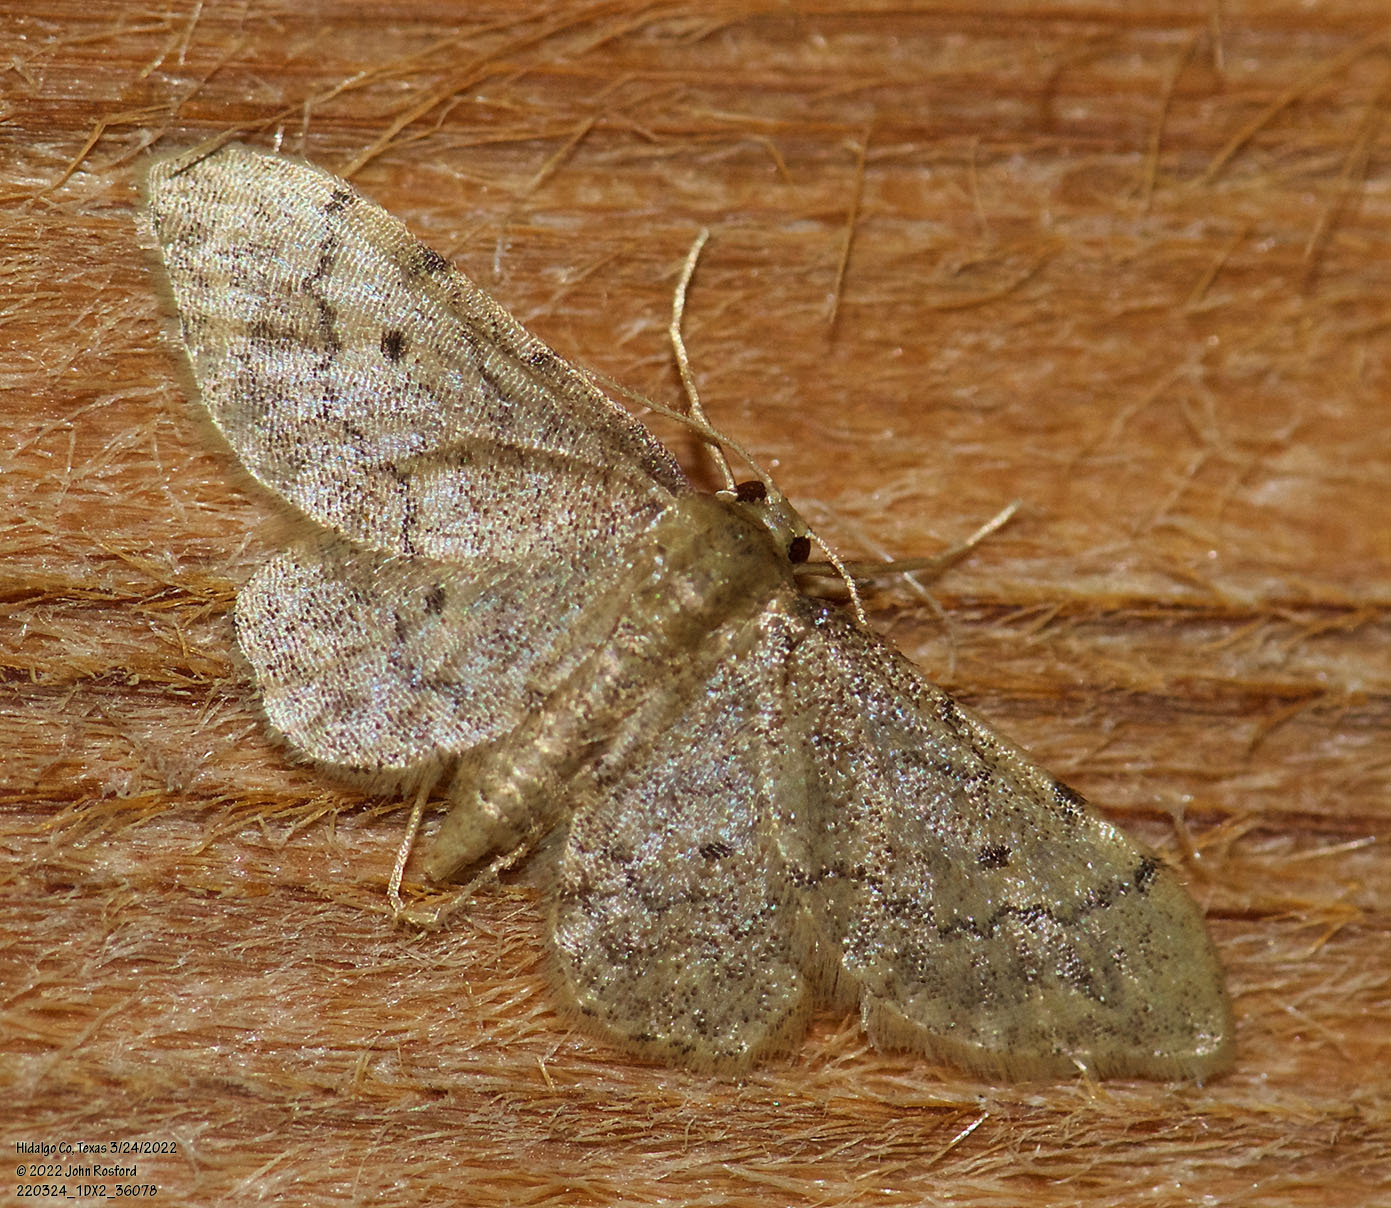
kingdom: Animalia
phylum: Arthropoda
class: Insecta
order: Lepidoptera
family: Geometridae
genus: Idaea
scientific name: Idaea celtima
